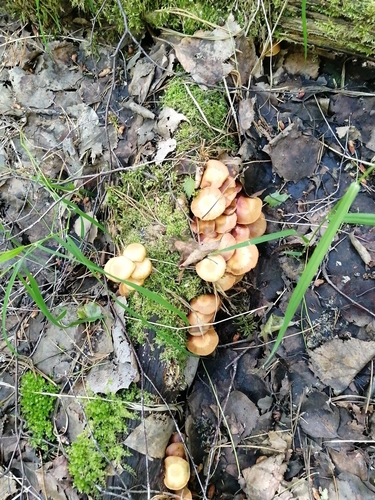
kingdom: Fungi
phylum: Basidiomycota
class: Agaricomycetes
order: Agaricales
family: Strophariaceae
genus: Kuehneromyces
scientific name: Kuehneromyces mutabilis
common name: Sheathed woodtuft
